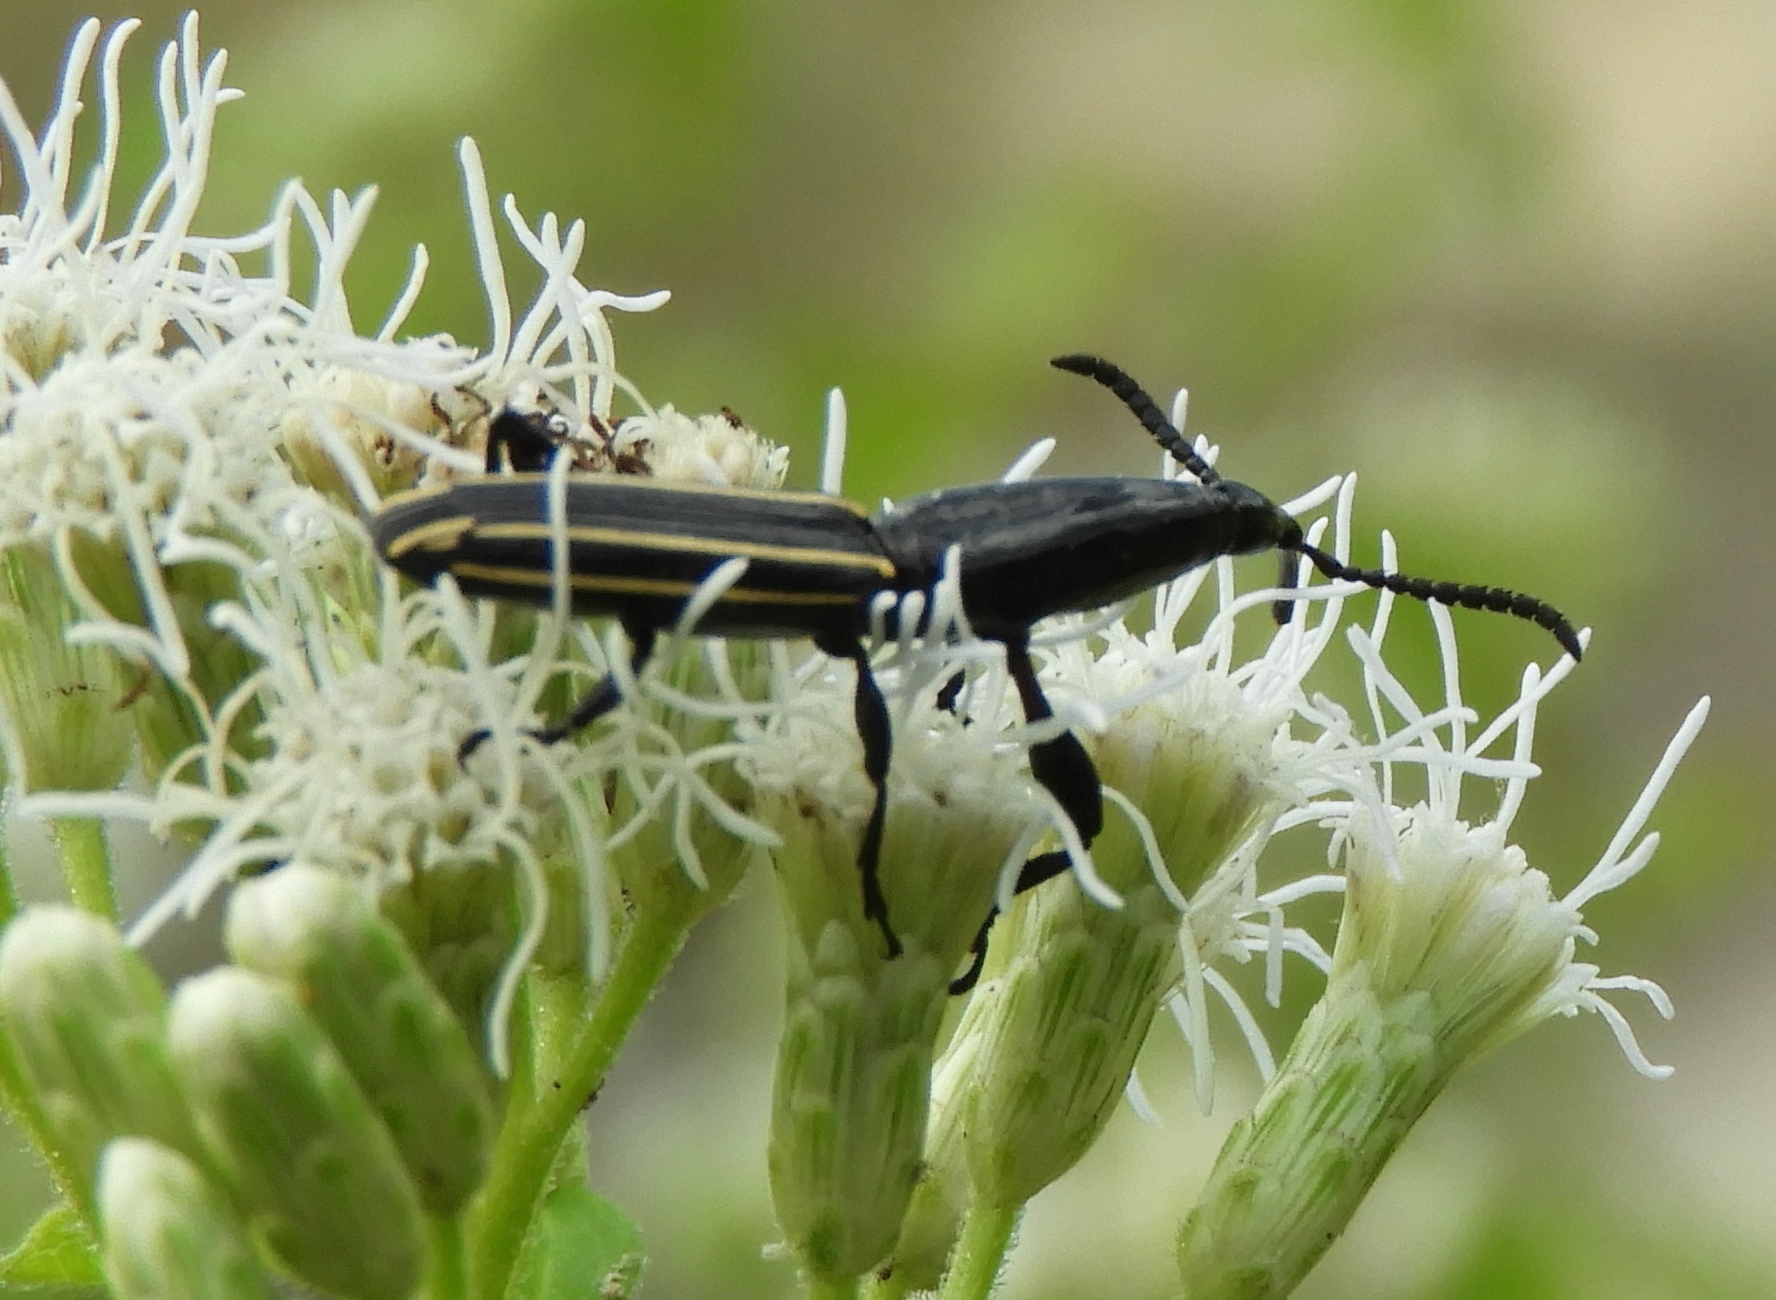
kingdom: Animalia
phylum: Arthropoda
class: Insecta
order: Coleoptera
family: Brentidae
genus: Brentus
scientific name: Brentus anchorago
